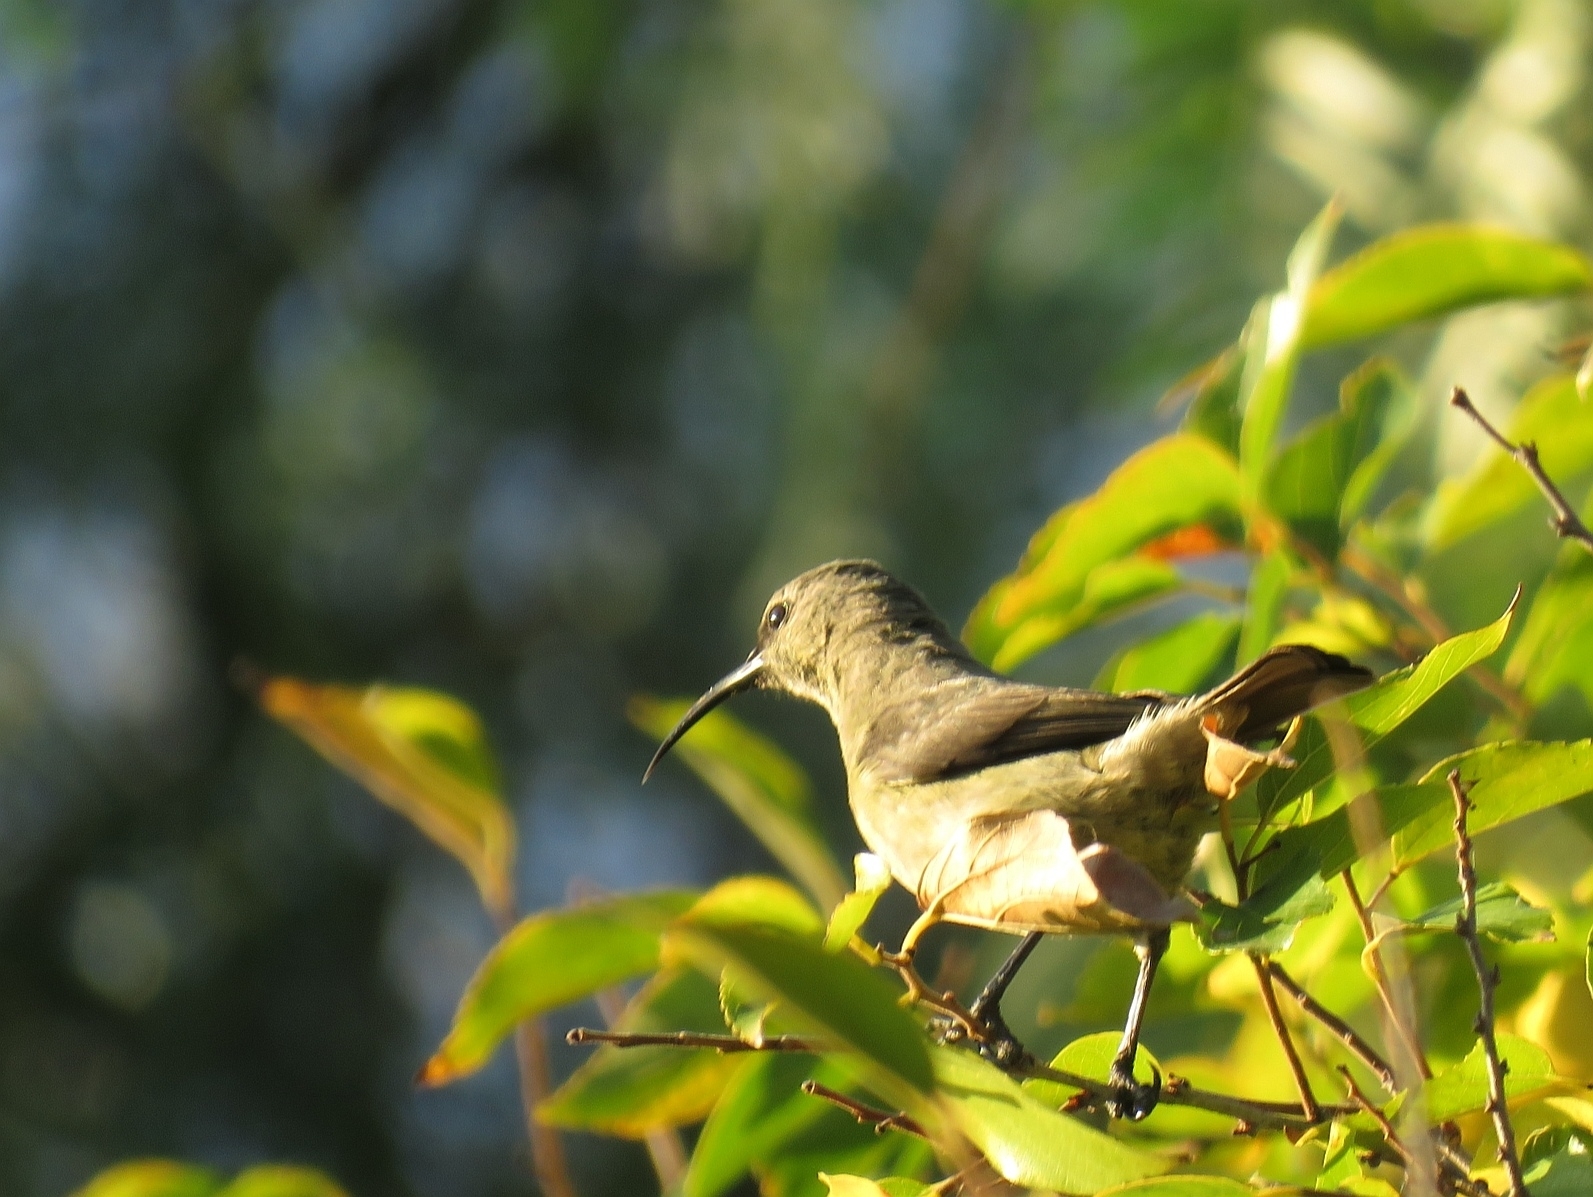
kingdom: Animalia
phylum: Chordata
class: Aves
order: Passeriformes
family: Nectariniidae
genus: Cinnyris
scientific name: Cinnyris afer
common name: Greater double-collared sunbird
